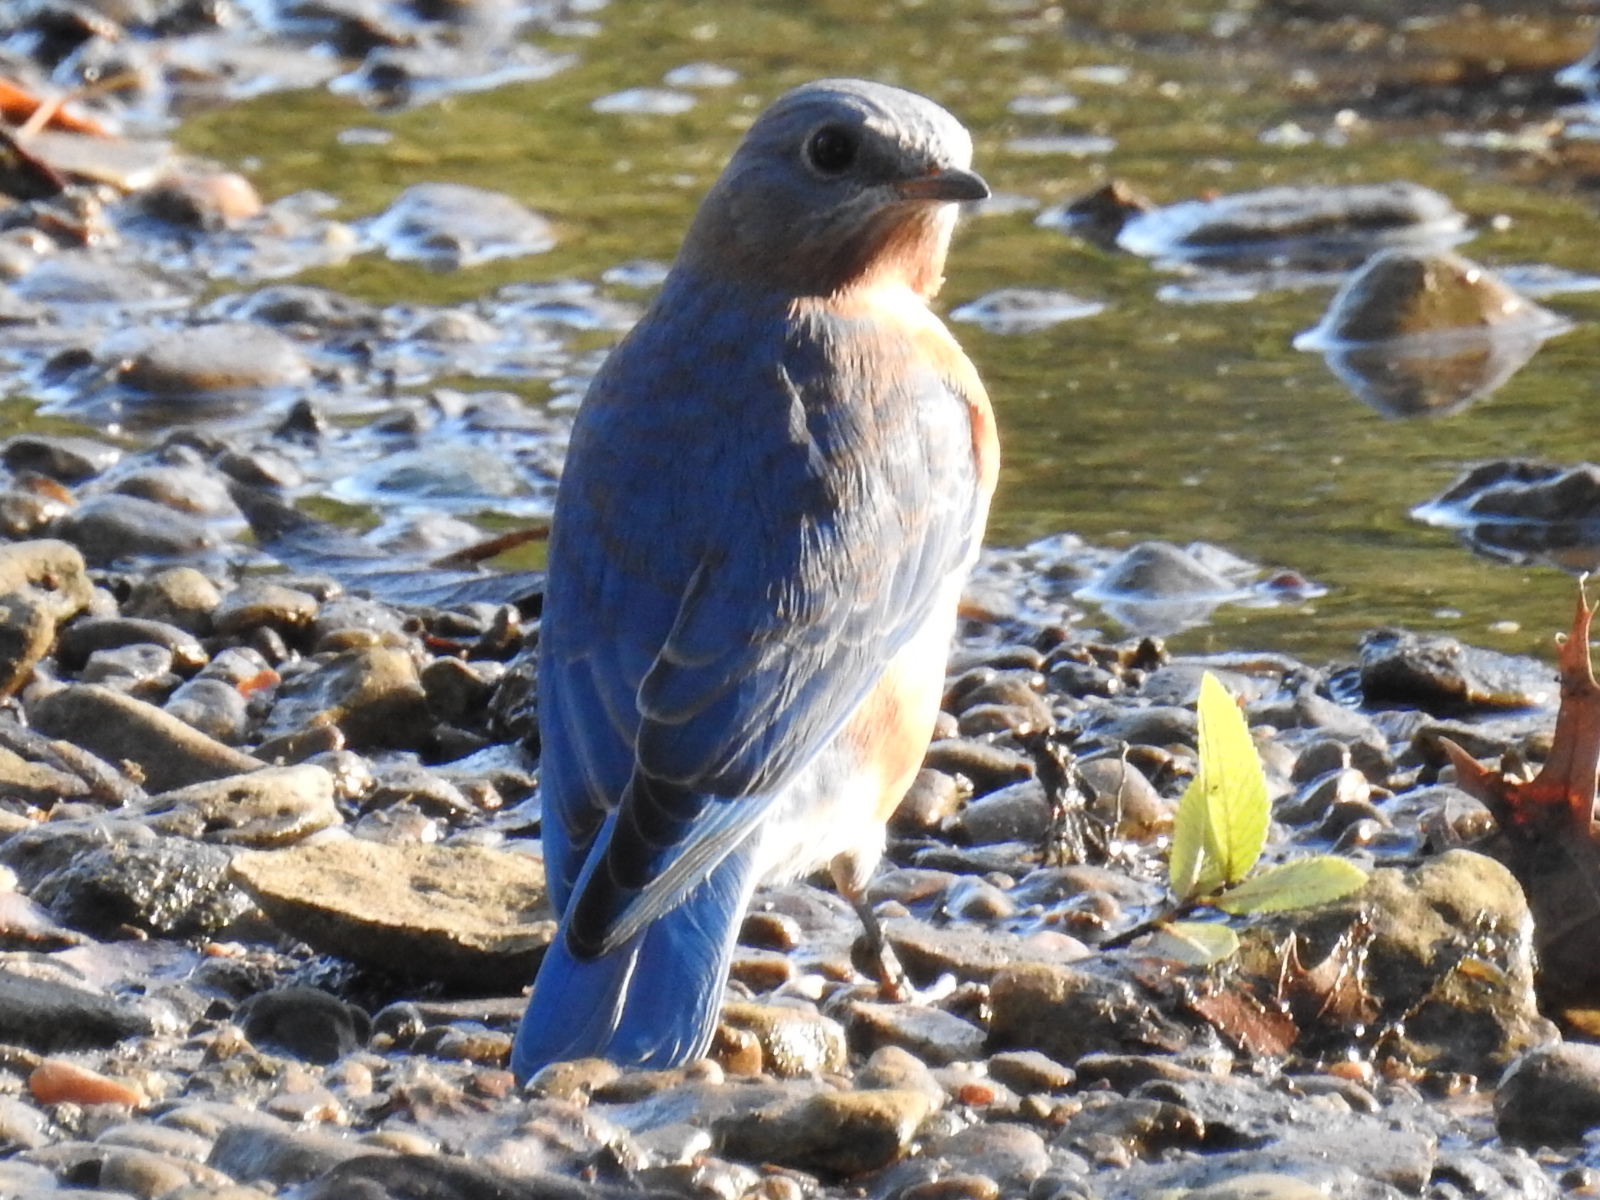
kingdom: Animalia
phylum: Chordata
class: Aves
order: Passeriformes
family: Turdidae
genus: Sialia
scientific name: Sialia sialis
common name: Eastern bluebird
